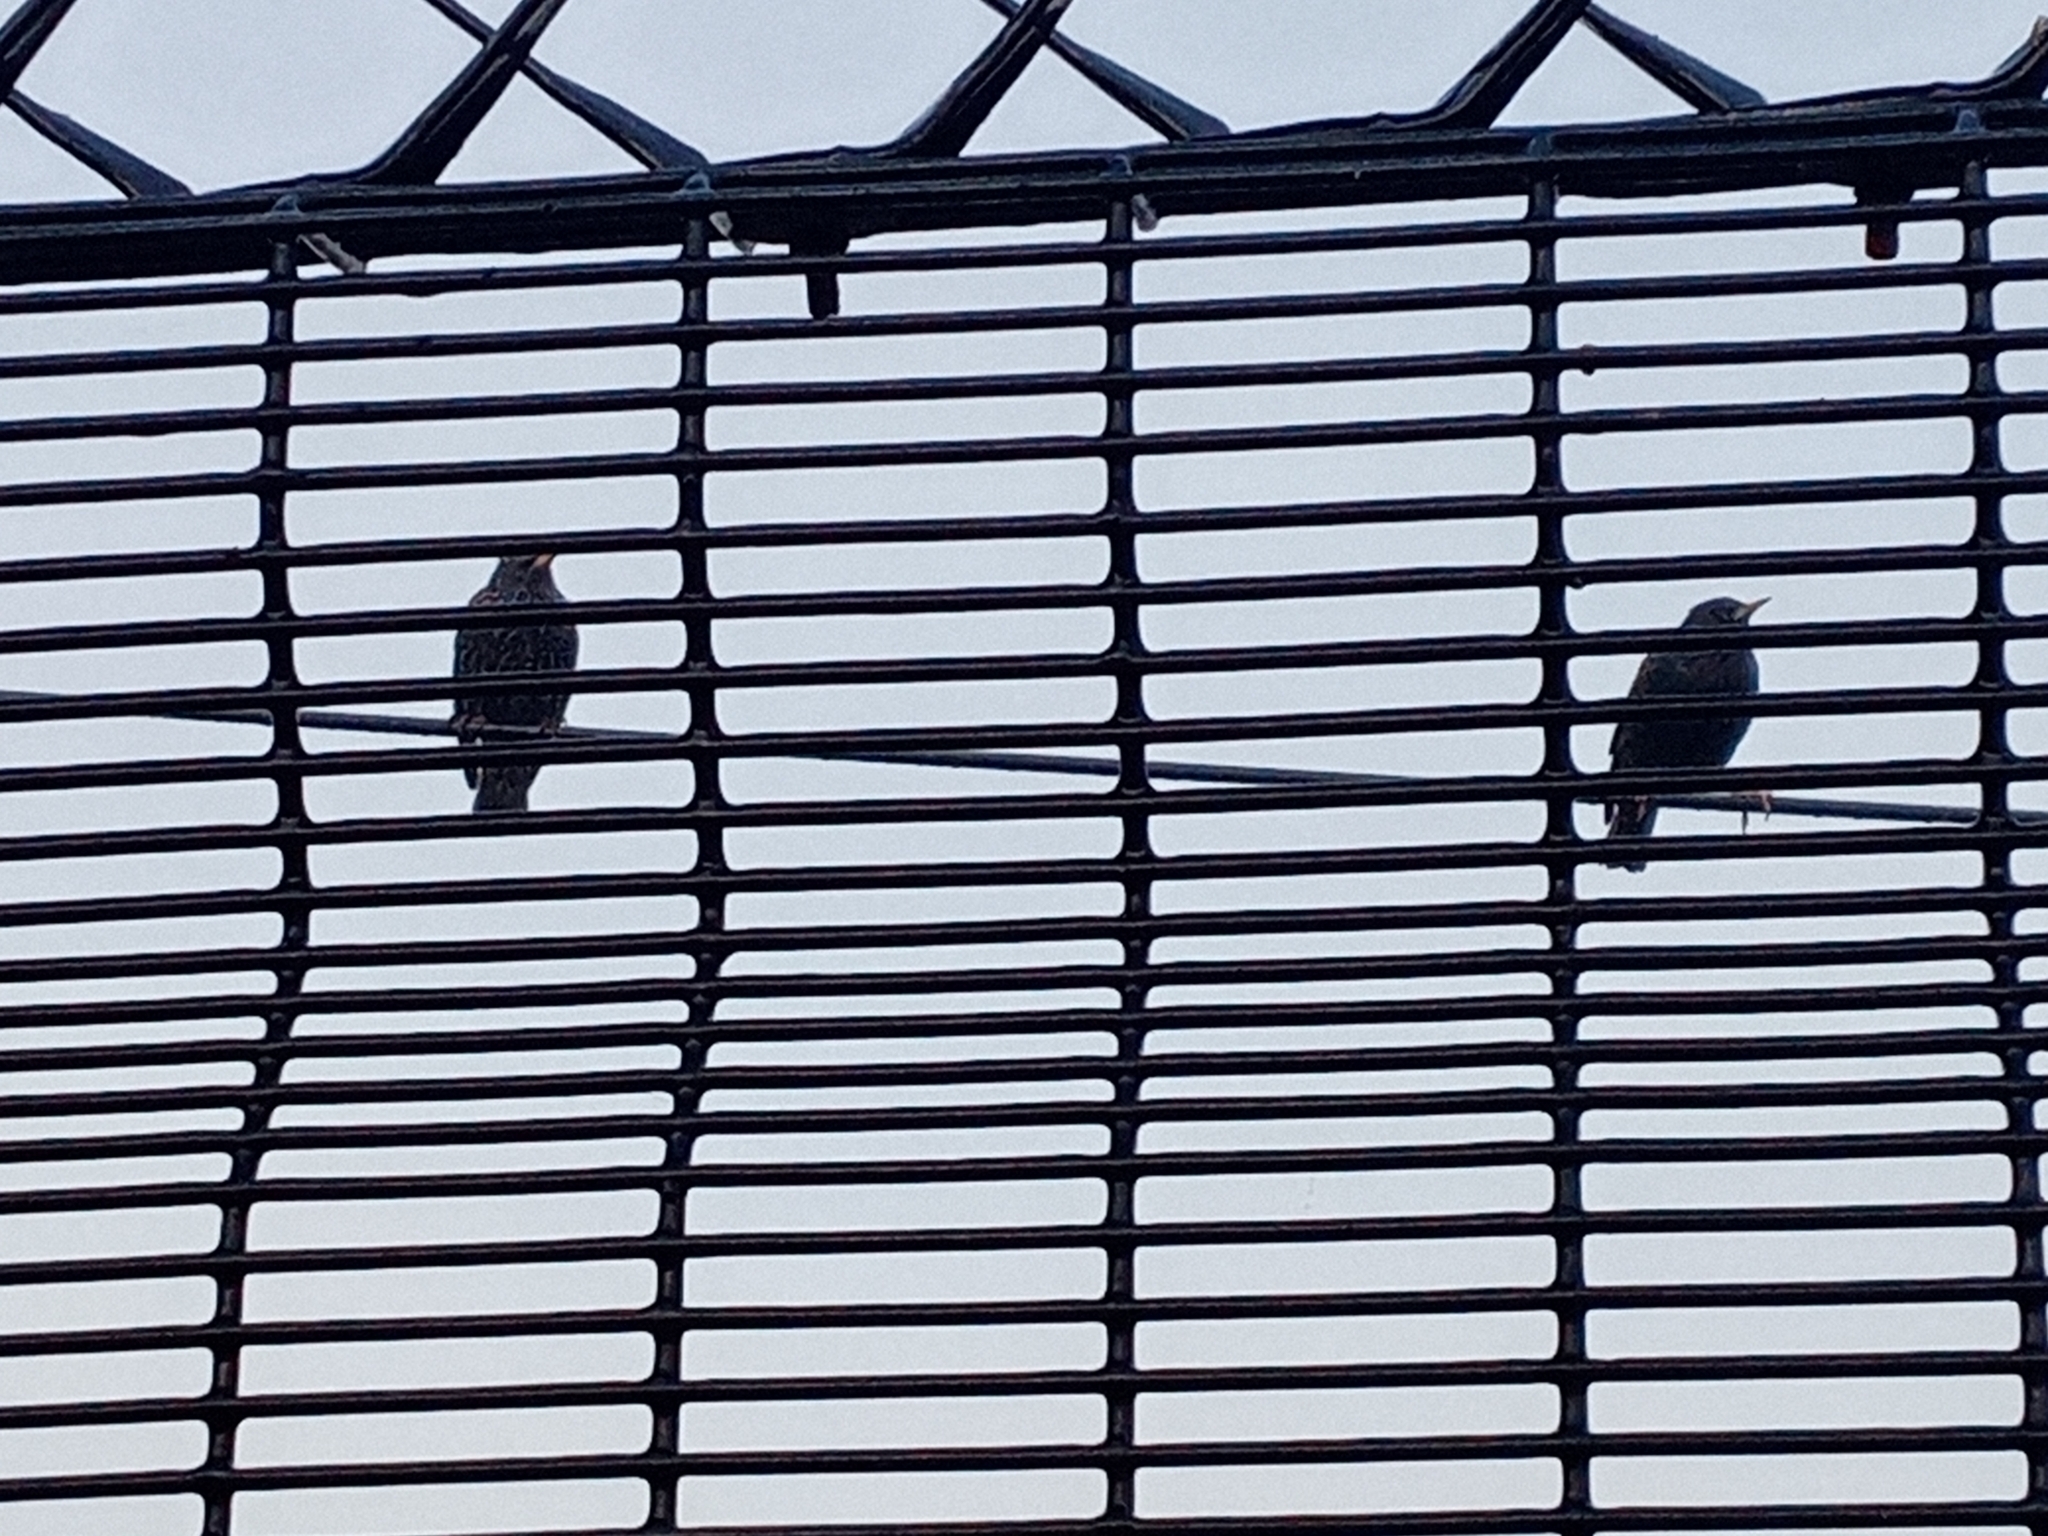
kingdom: Animalia
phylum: Chordata
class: Aves
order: Passeriformes
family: Sturnidae
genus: Sturnus
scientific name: Sturnus vulgaris
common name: Common starling
